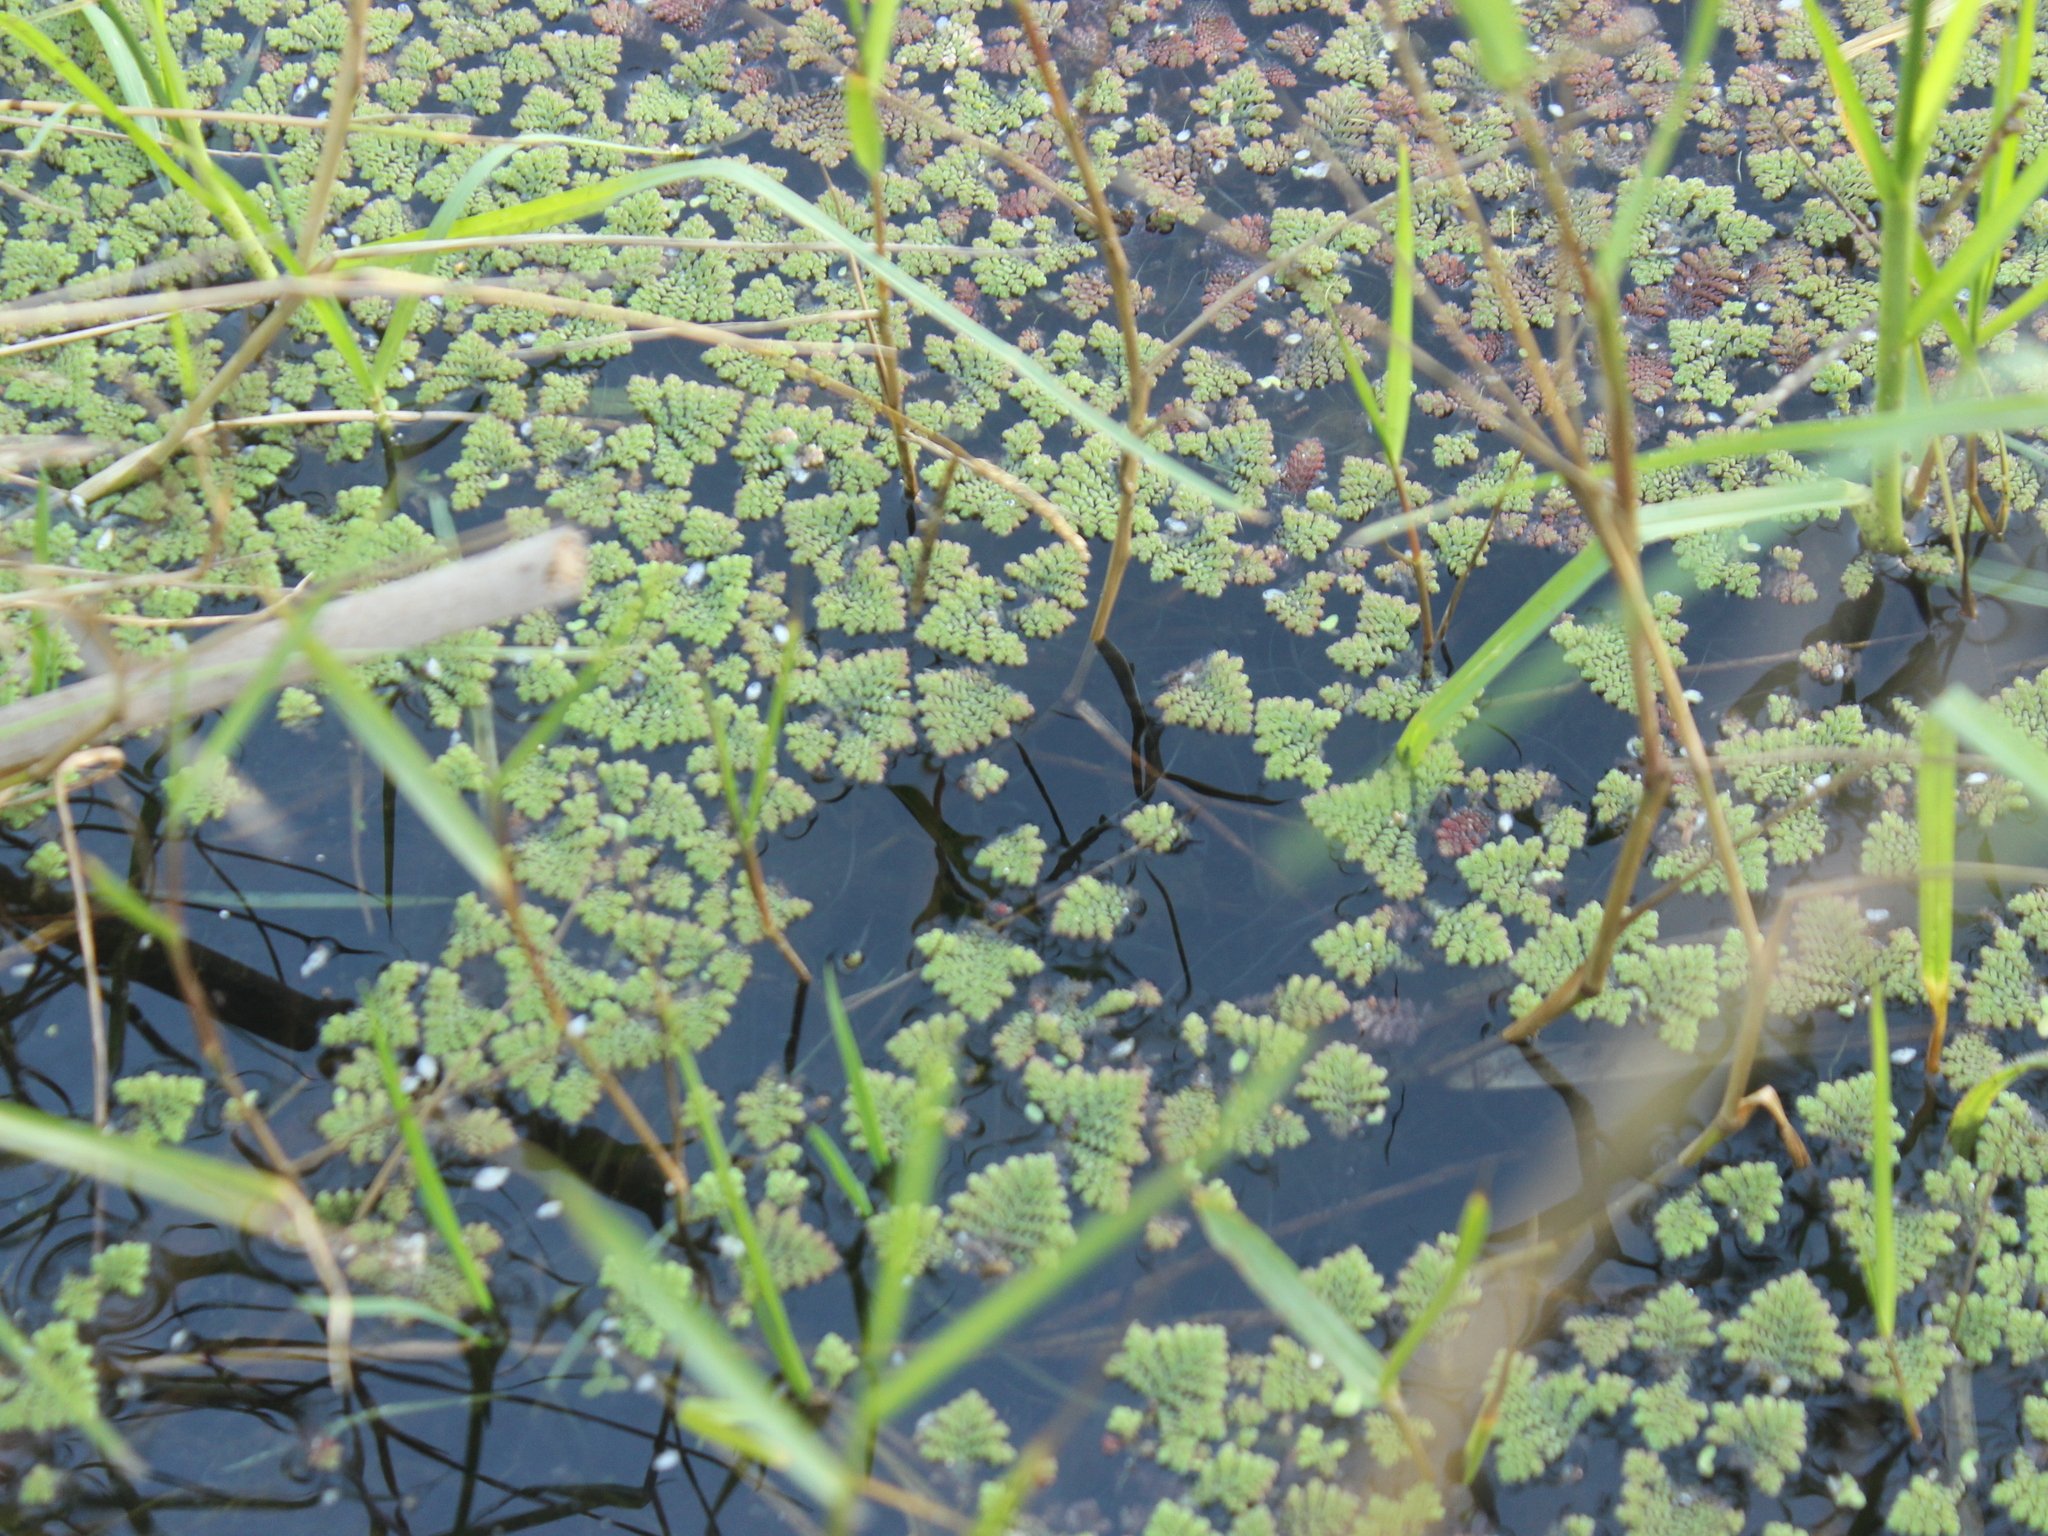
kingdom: Plantae
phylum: Tracheophyta
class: Polypodiopsida
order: Salviniales
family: Salviniaceae
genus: Azolla
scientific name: Azolla pinnata
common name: Ferny azolla
